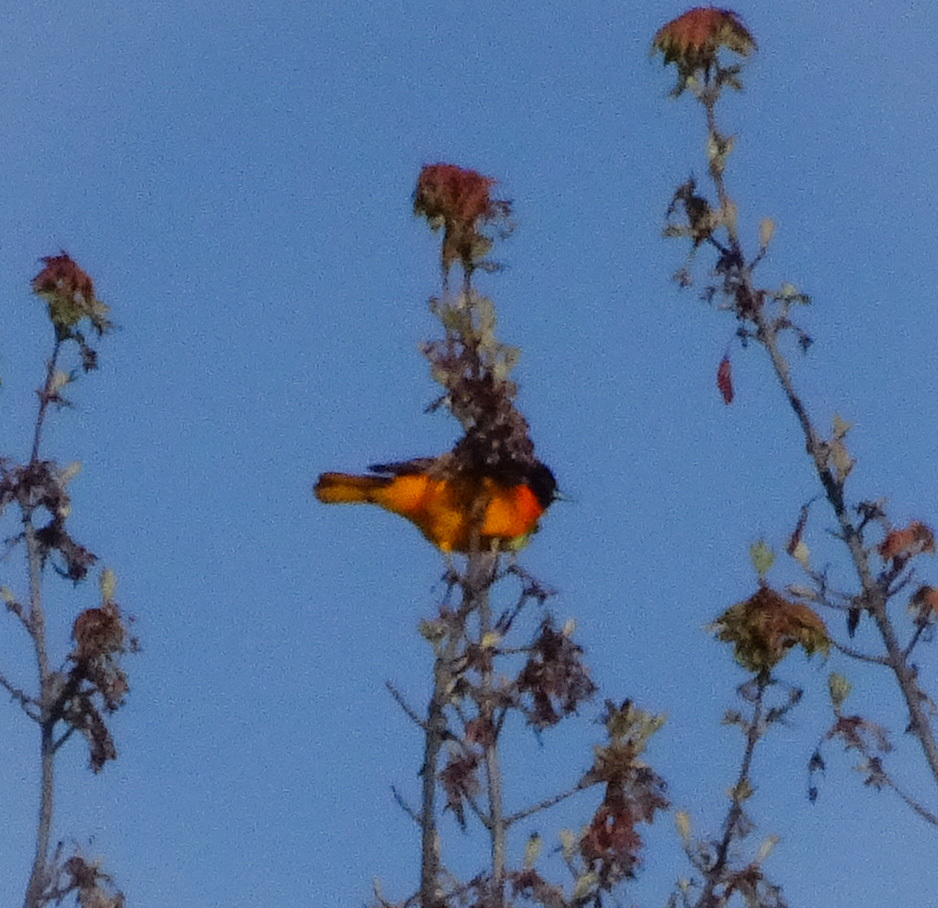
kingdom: Animalia
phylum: Chordata
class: Aves
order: Passeriformes
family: Icteridae
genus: Icterus
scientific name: Icterus galbula
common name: Baltimore oriole
